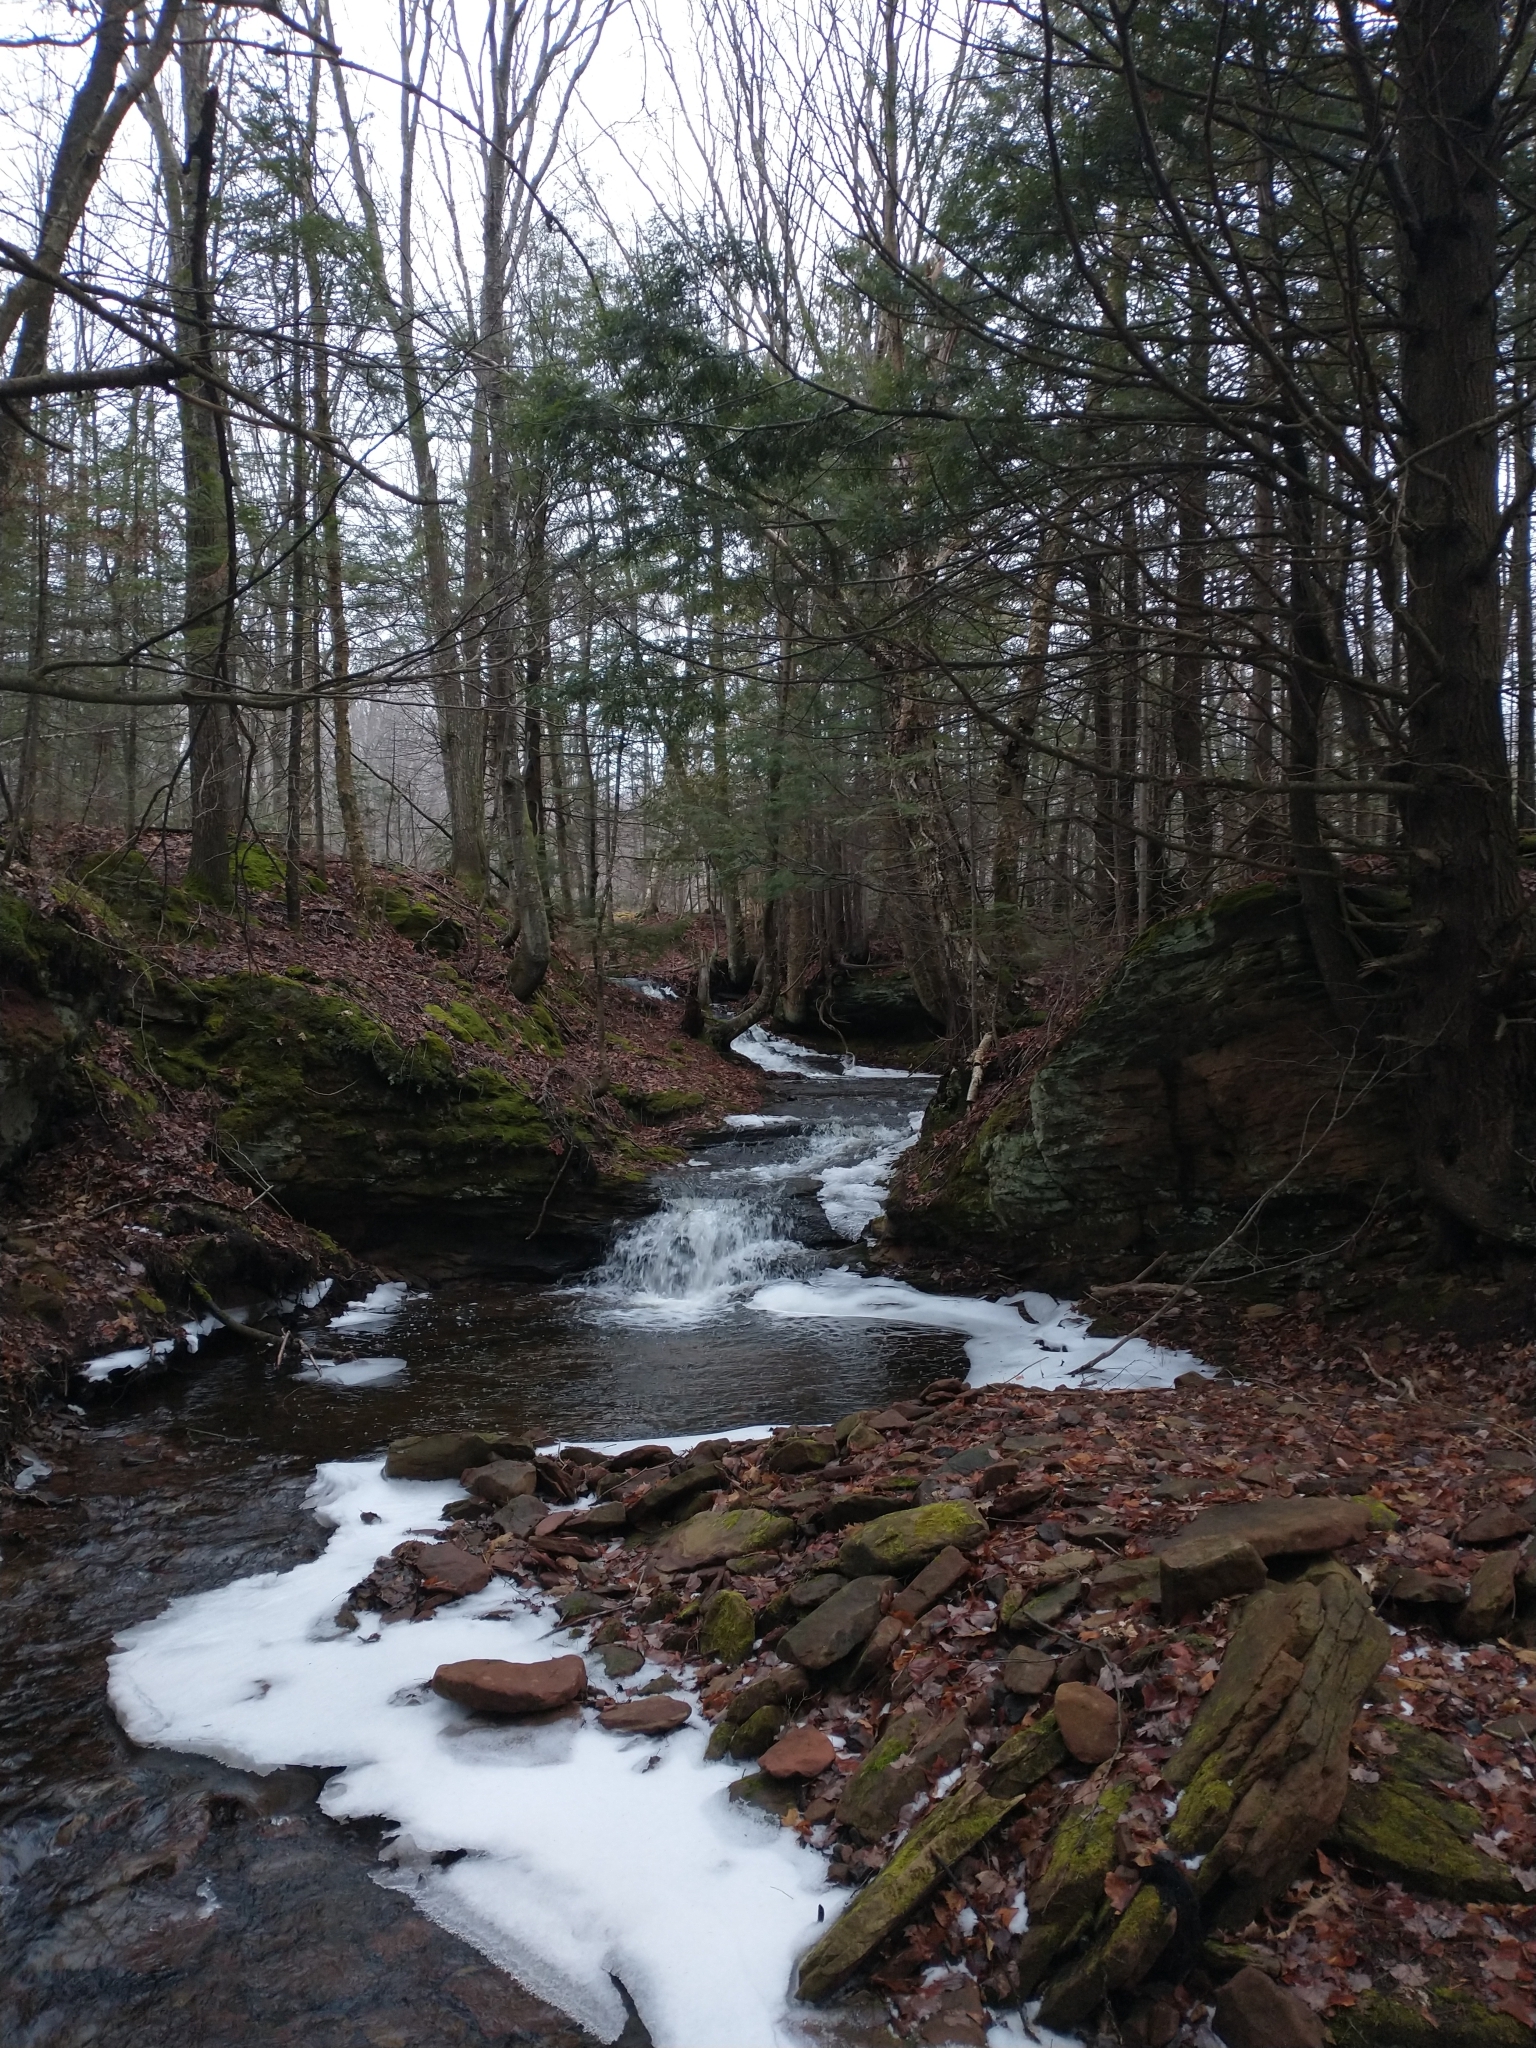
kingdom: Plantae
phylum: Tracheophyta
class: Pinopsida
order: Pinales
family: Pinaceae
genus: Tsuga
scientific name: Tsuga canadensis
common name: Eastern hemlock
